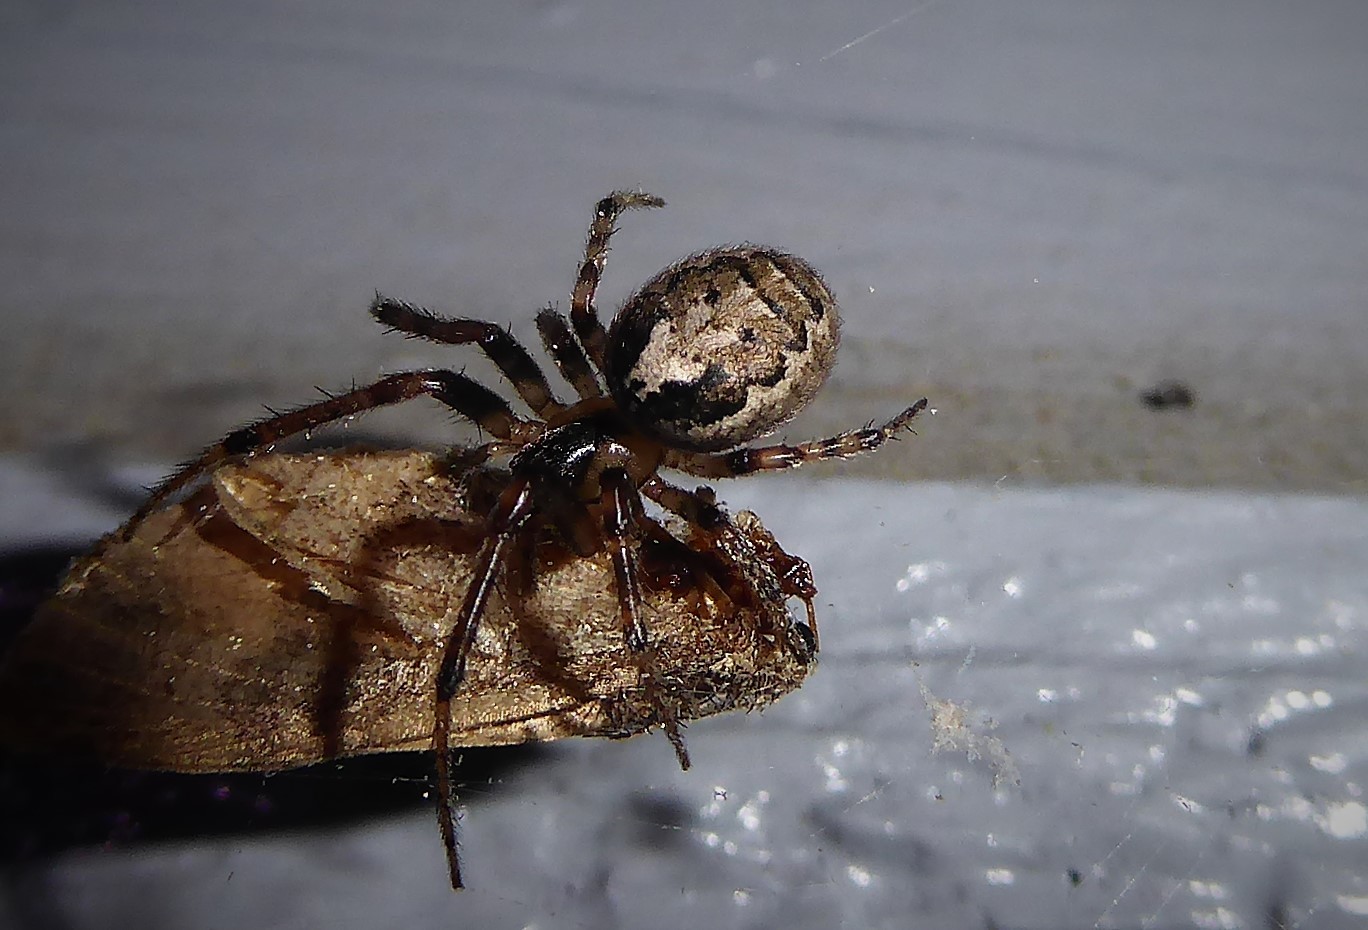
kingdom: Animalia
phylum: Arthropoda
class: Arachnida
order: Araneae
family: Araneidae
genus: Zygiella
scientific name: Zygiella x-notata
